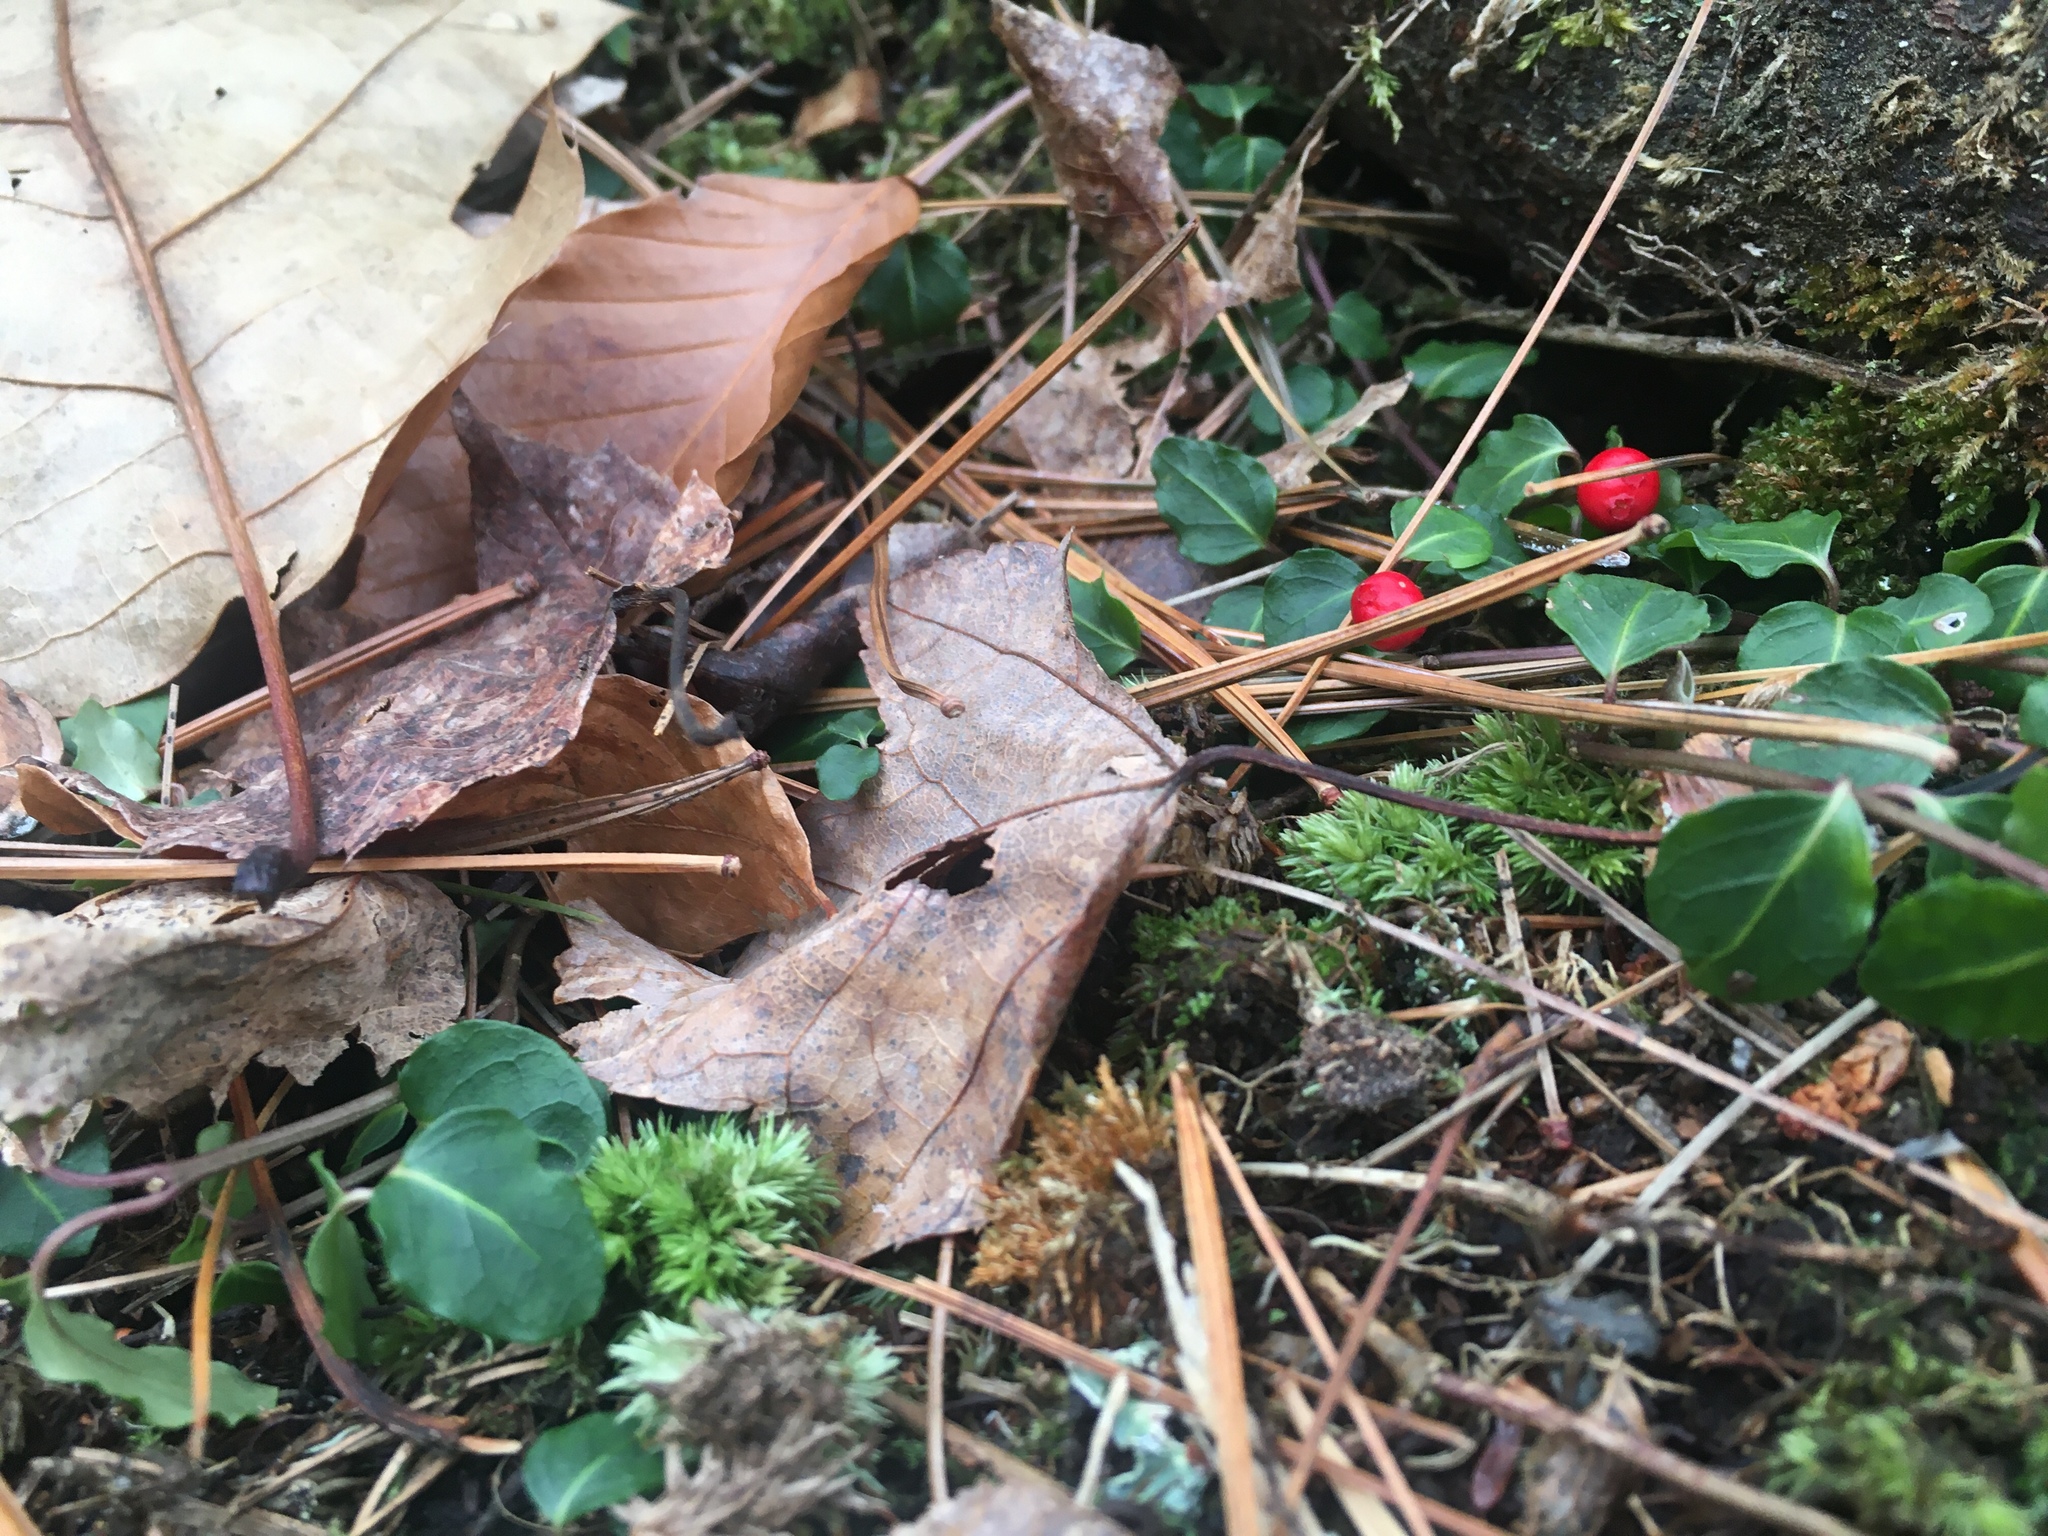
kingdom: Plantae
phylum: Tracheophyta
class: Magnoliopsida
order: Gentianales
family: Rubiaceae
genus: Mitchella
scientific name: Mitchella repens
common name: Partridge-berry
